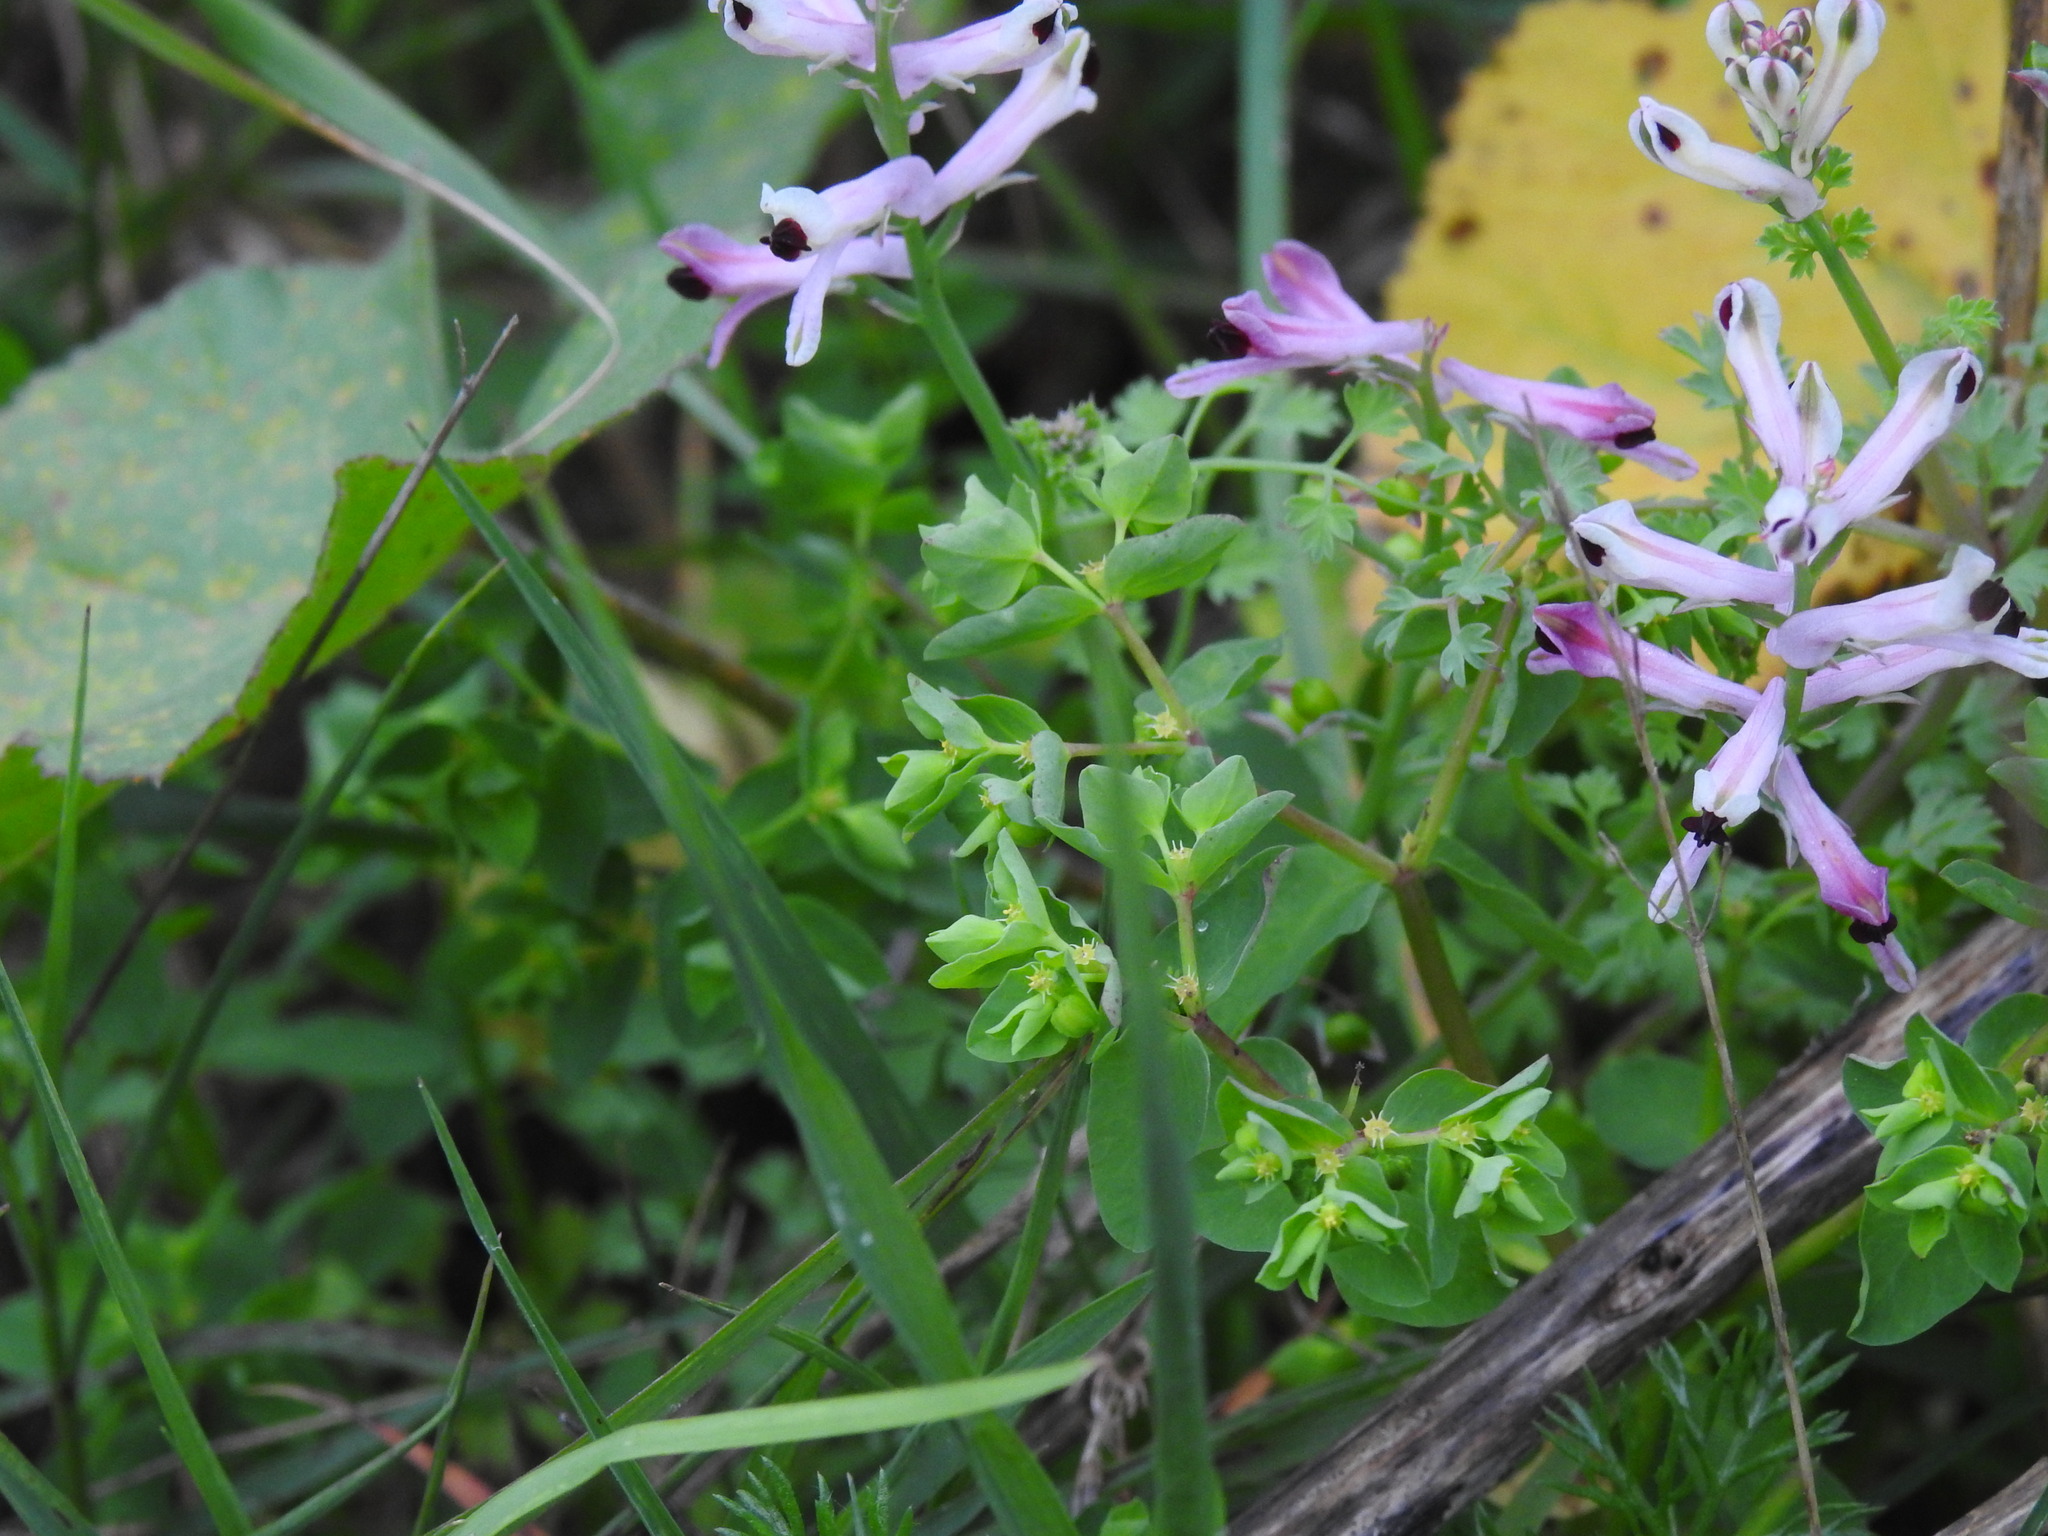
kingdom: Plantae
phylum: Tracheophyta
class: Magnoliopsida
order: Malpighiales
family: Euphorbiaceae
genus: Euphorbia
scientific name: Euphorbia peplus
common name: Petty spurge
